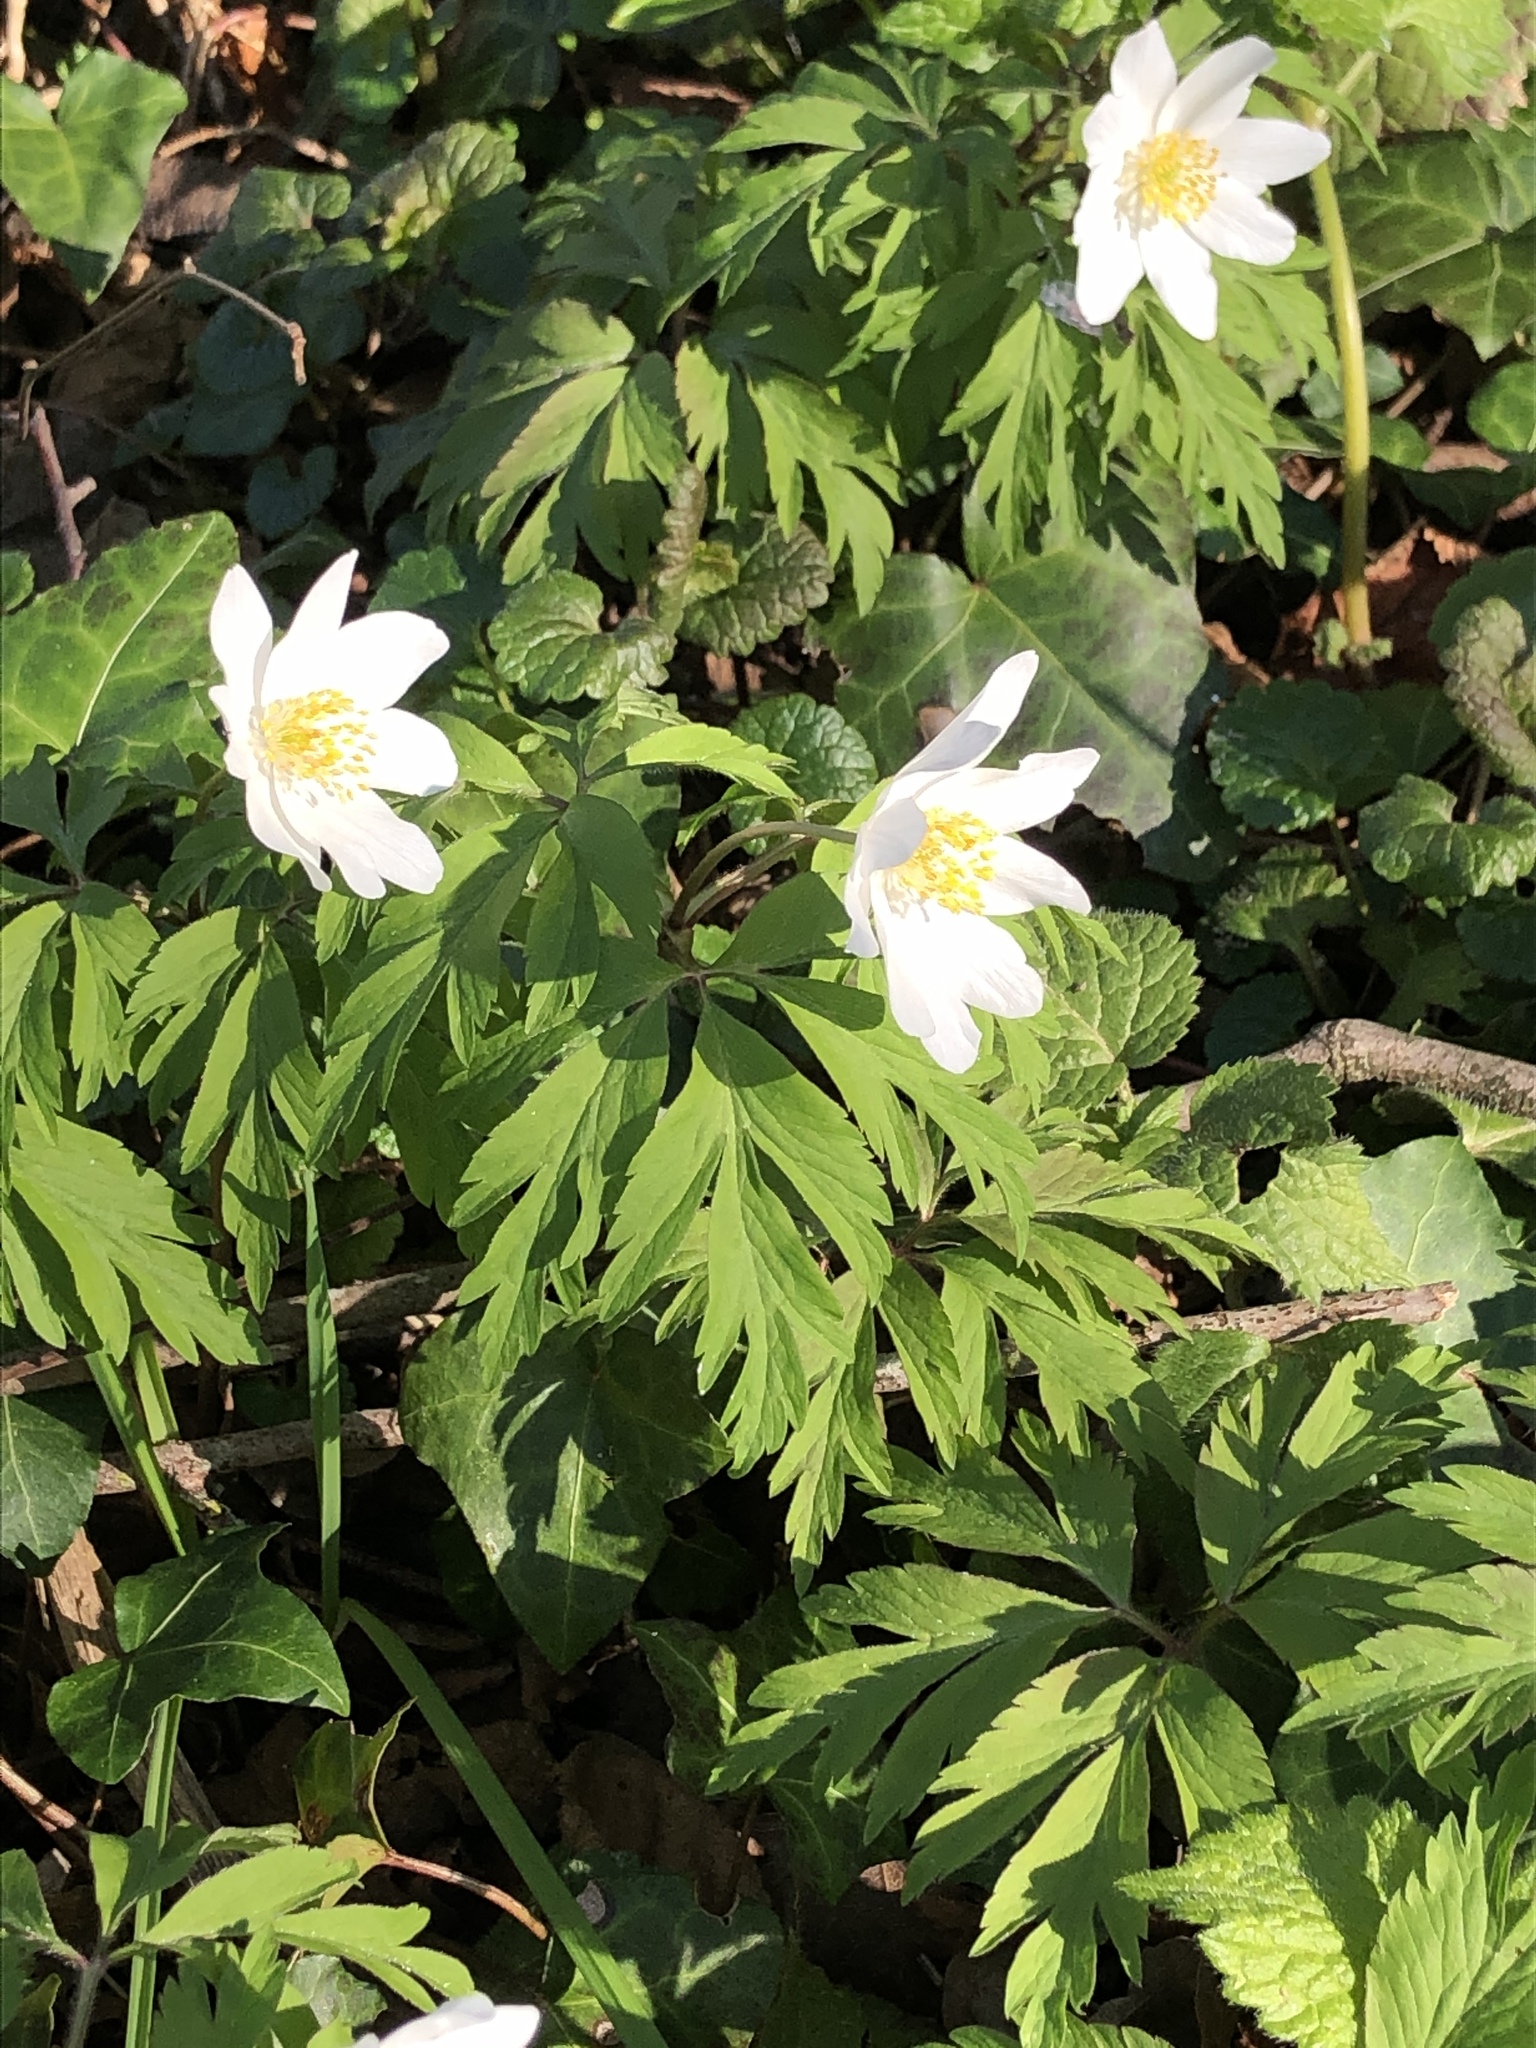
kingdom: Plantae
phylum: Tracheophyta
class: Magnoliopsida
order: Ranunculales
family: Ranunculaceae
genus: Anemone
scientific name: Anemone nemorosa
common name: Wood anemone
